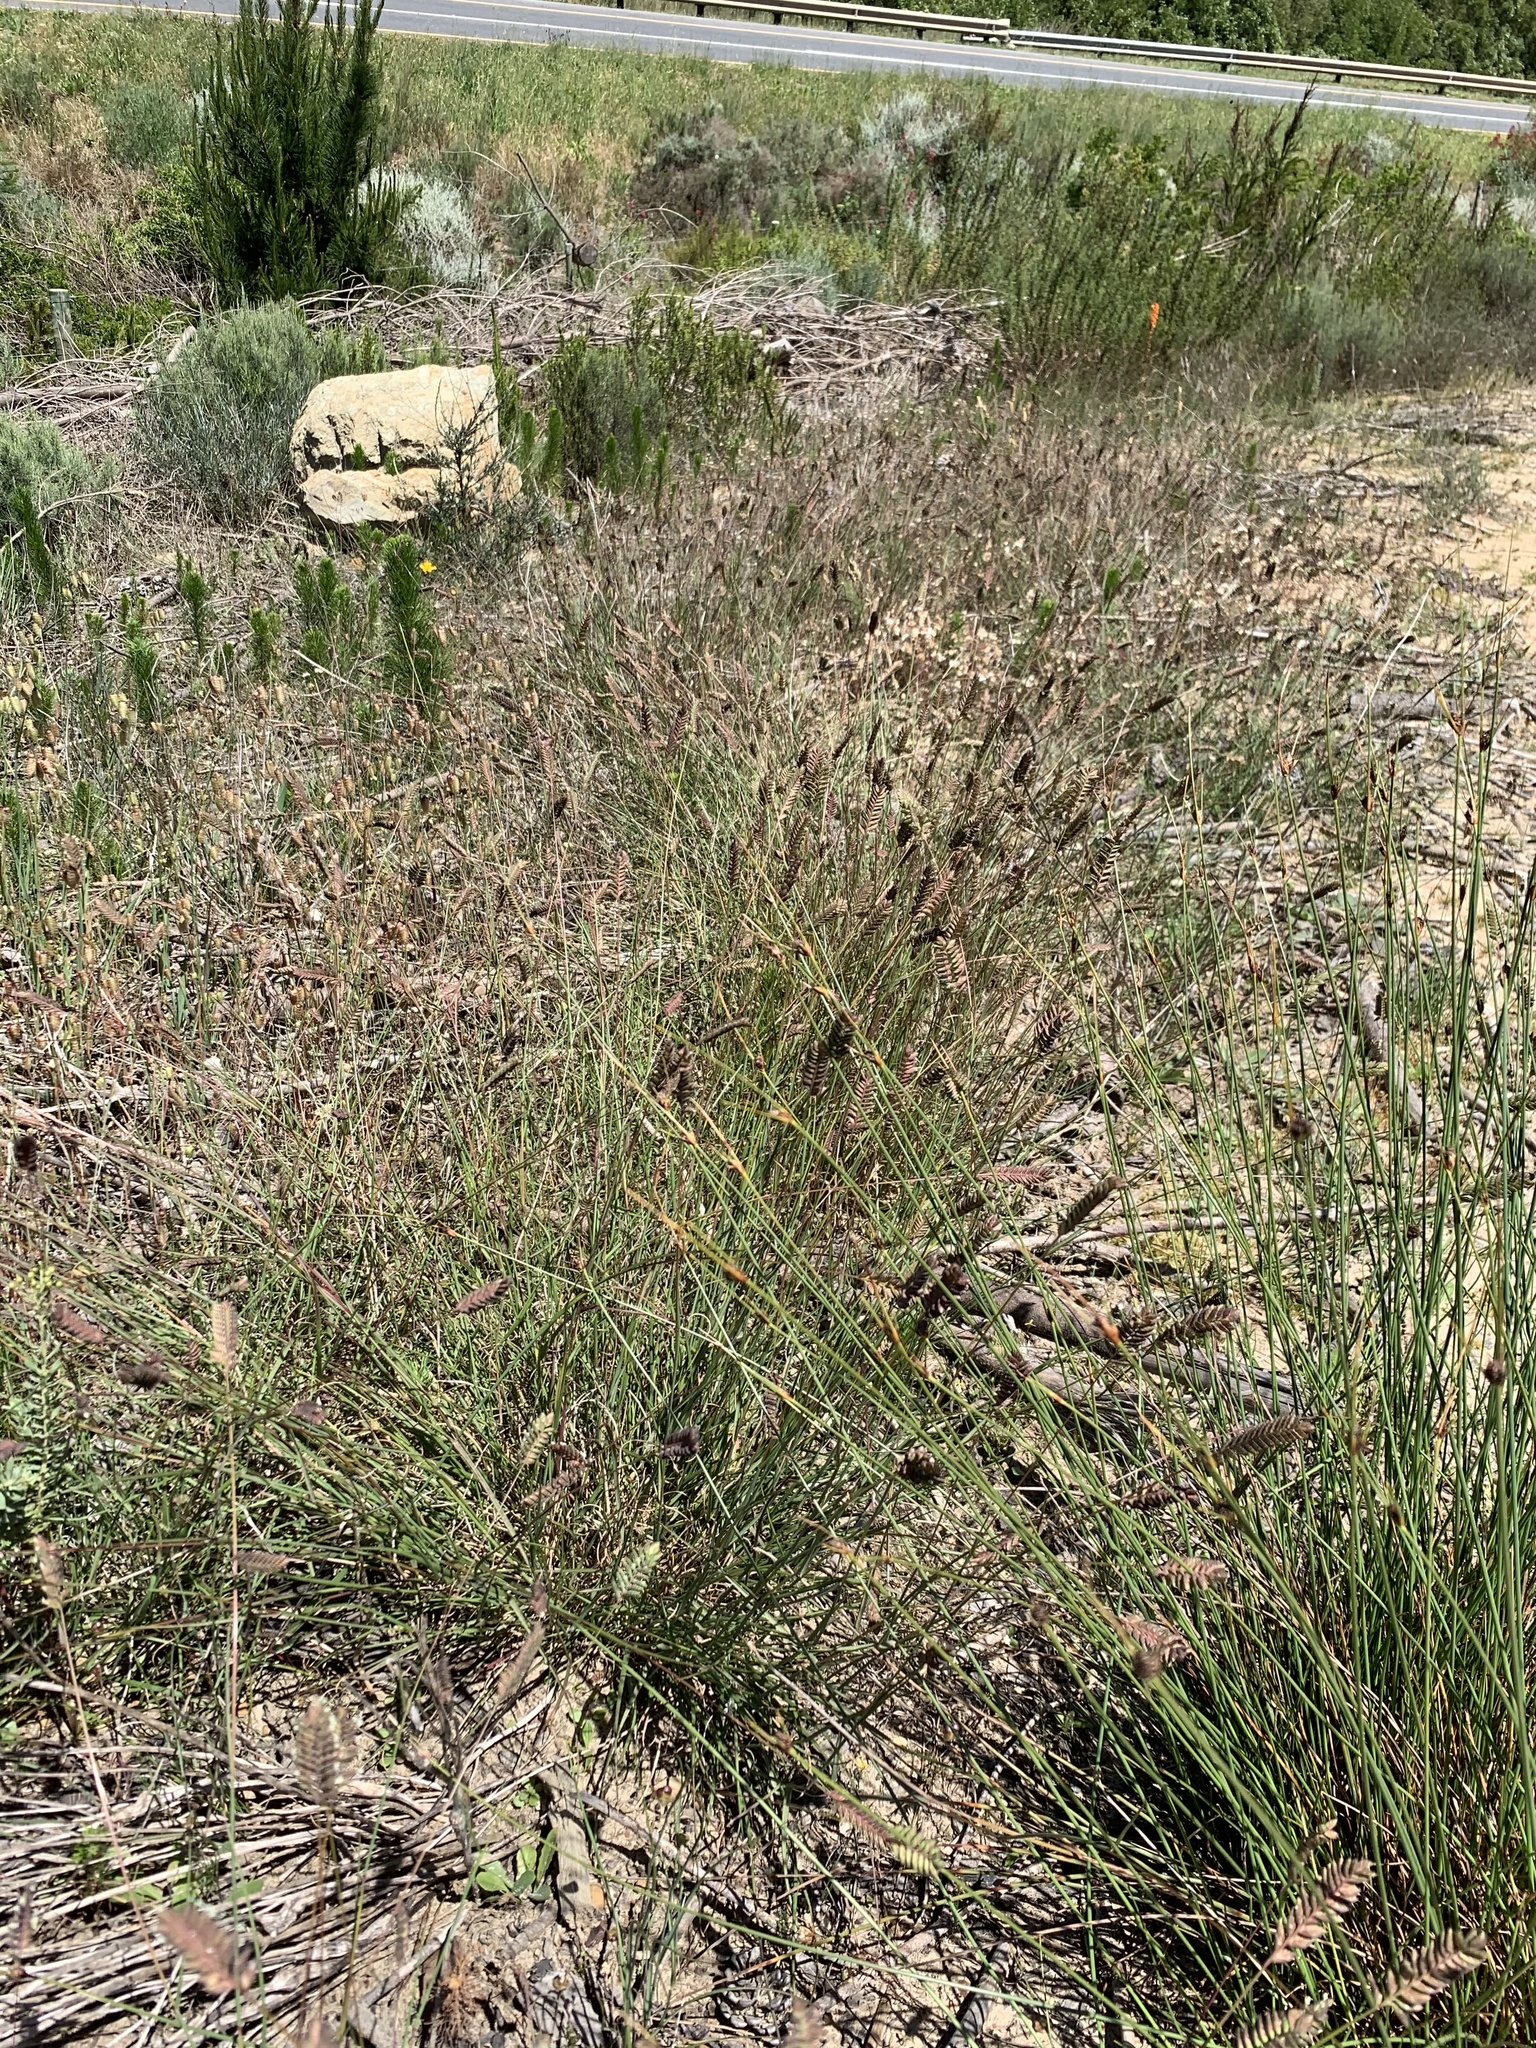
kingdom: Plantae
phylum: Tracheophyta
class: Liliopsida
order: Poales
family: Poaceae
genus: Tribolium
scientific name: Tribolium uniolae
